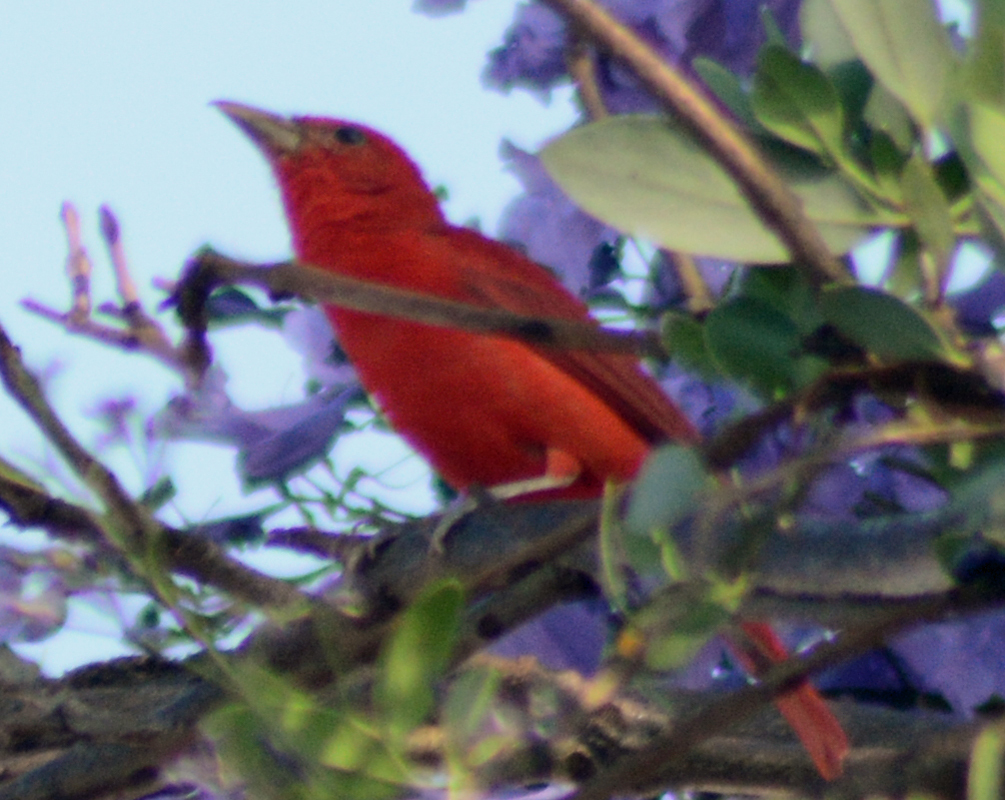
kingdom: Animalia
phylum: Chordata
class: Aves
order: Passeriformes
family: Cardinalidae
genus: Piranga
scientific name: Piranga rubra
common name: Summer tanager
